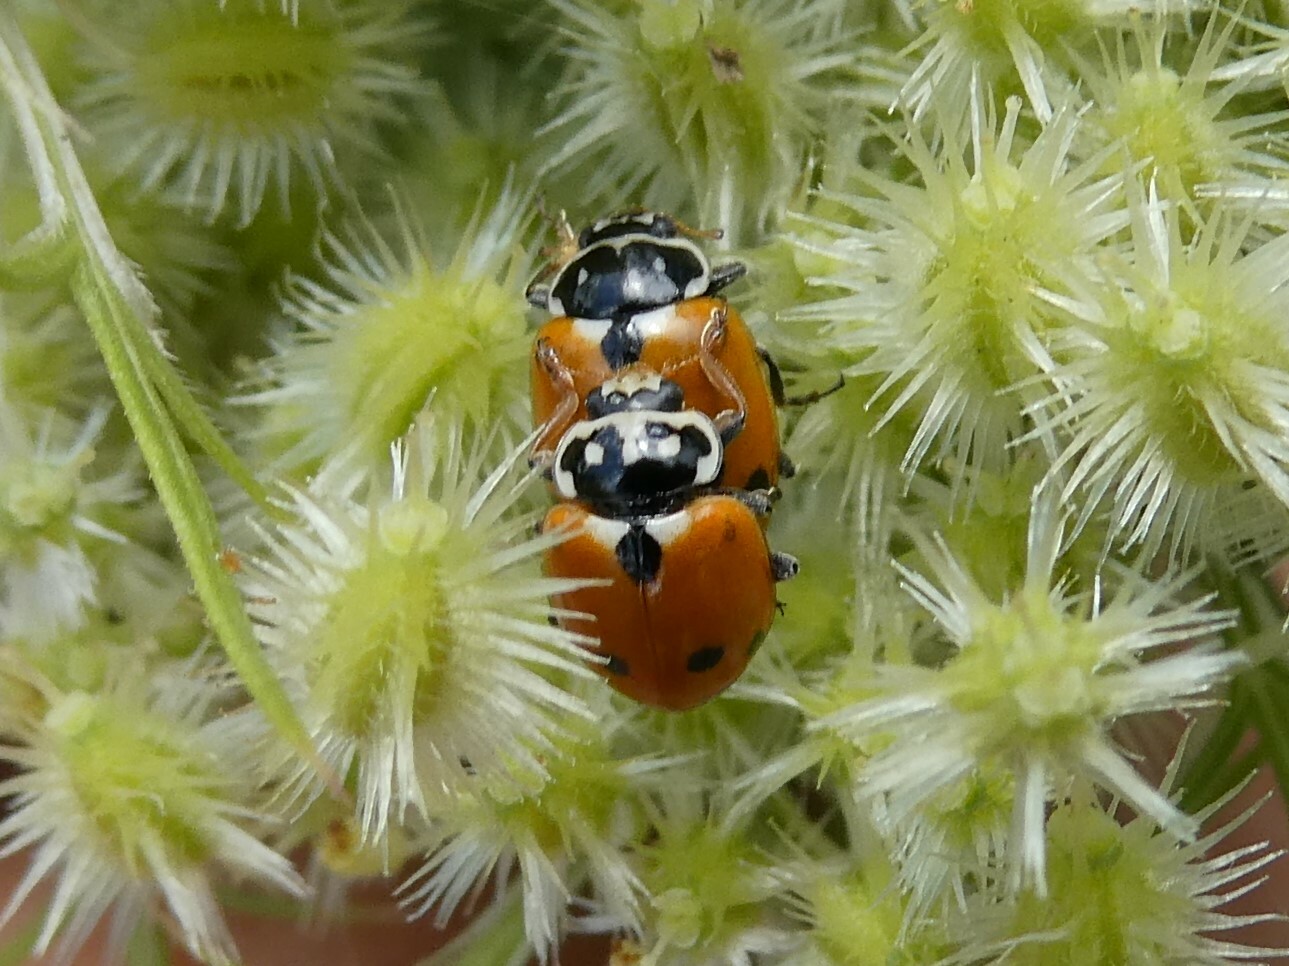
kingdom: Animalia
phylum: Arthropoda
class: Insecta
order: Coleoptera
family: Coccinellidae
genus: Hippodamia
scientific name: Hippodamia variegata
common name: Ladybird beetle
